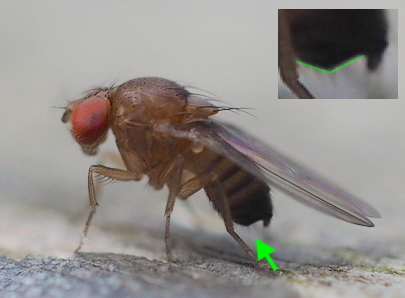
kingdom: Animalia
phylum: Arthropoda
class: Insecta
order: Diptera
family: Drosophilidae
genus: Drosophila
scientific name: Drosophila suzukii
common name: Spotted-wing drosophila
